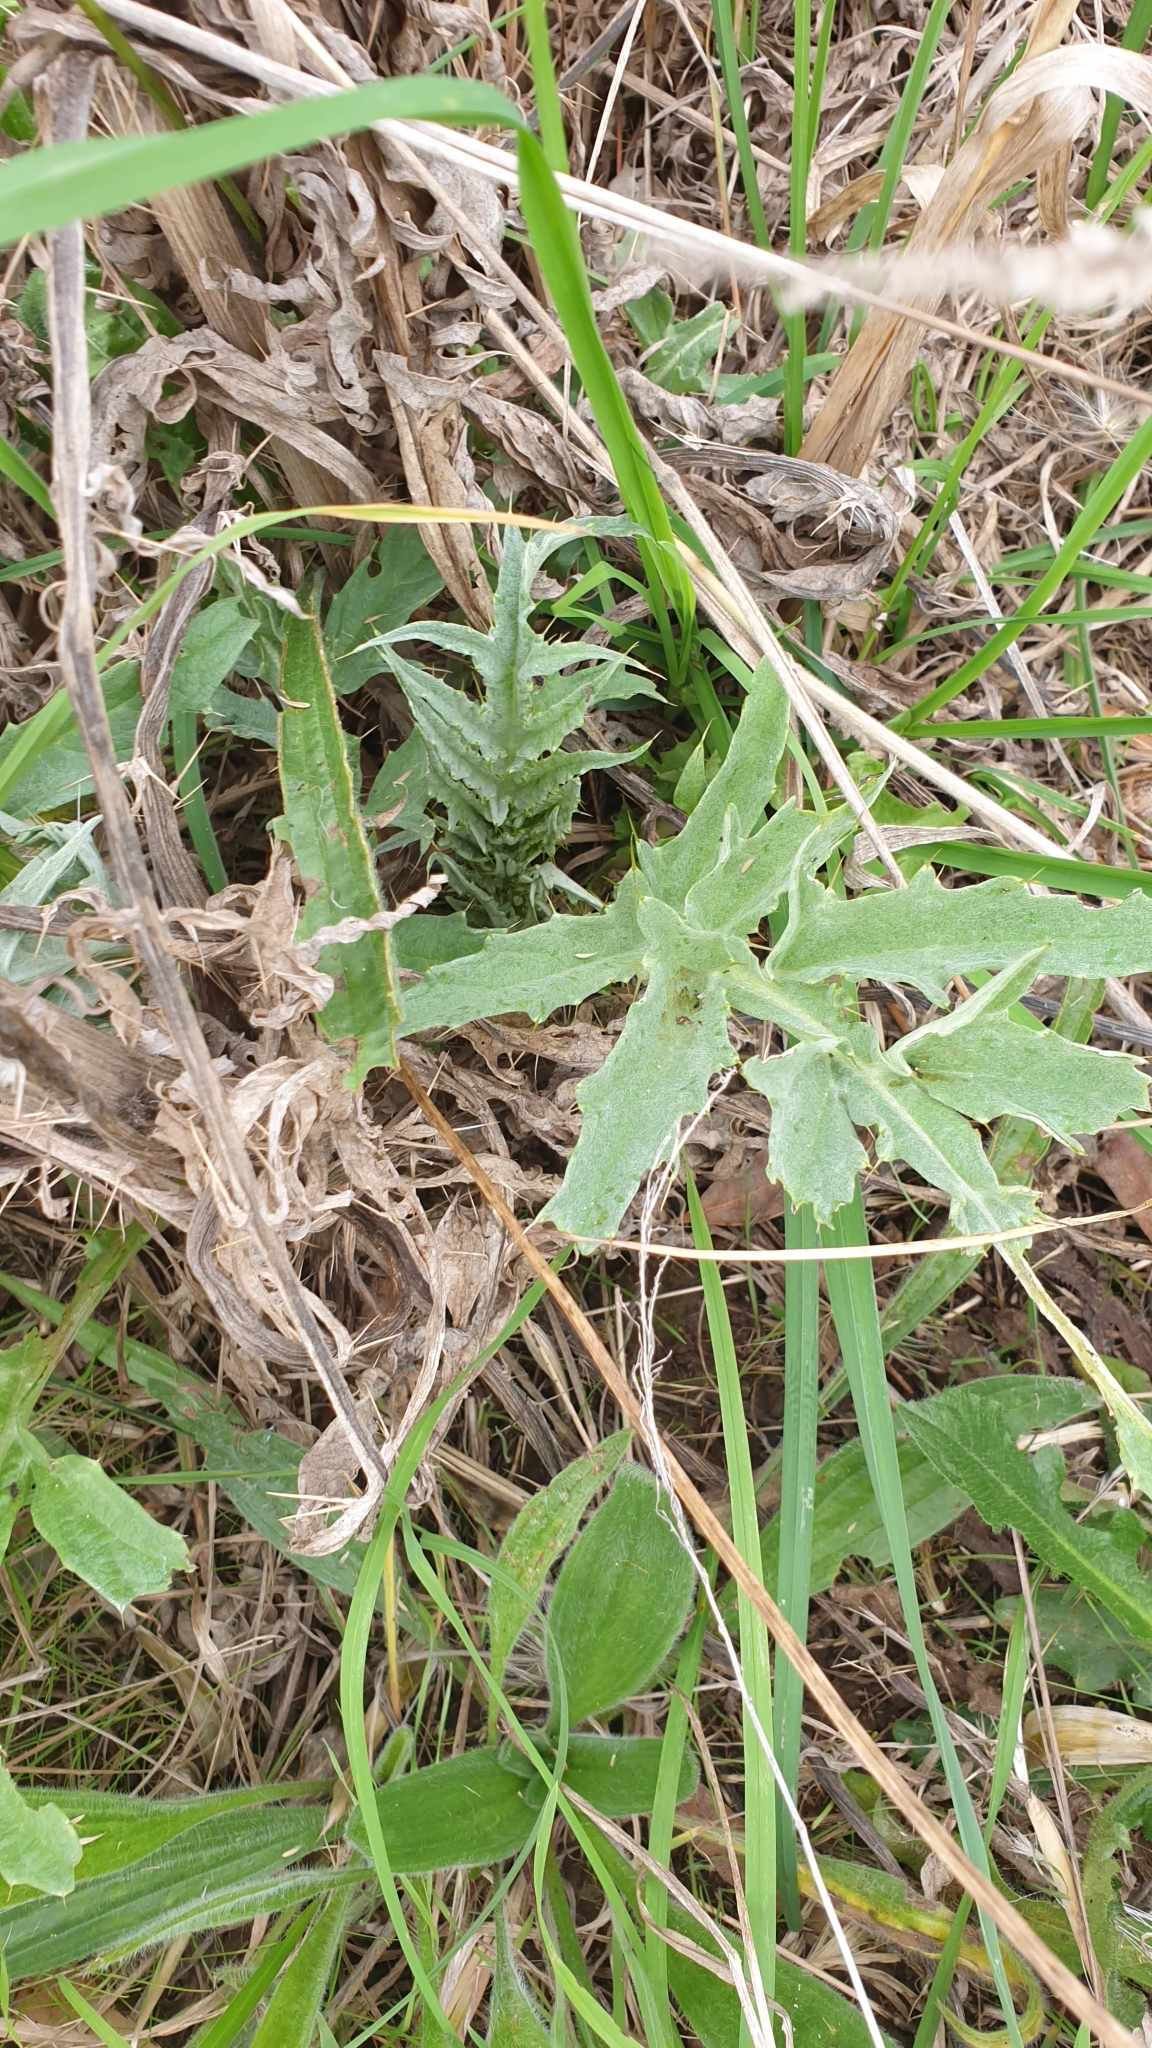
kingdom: Plantae
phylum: Tracheophyta
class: Magnoliopsida
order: Asterales
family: Asteraceae
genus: Cynara
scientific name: Cynara cardunculus
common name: Globe artichoke
